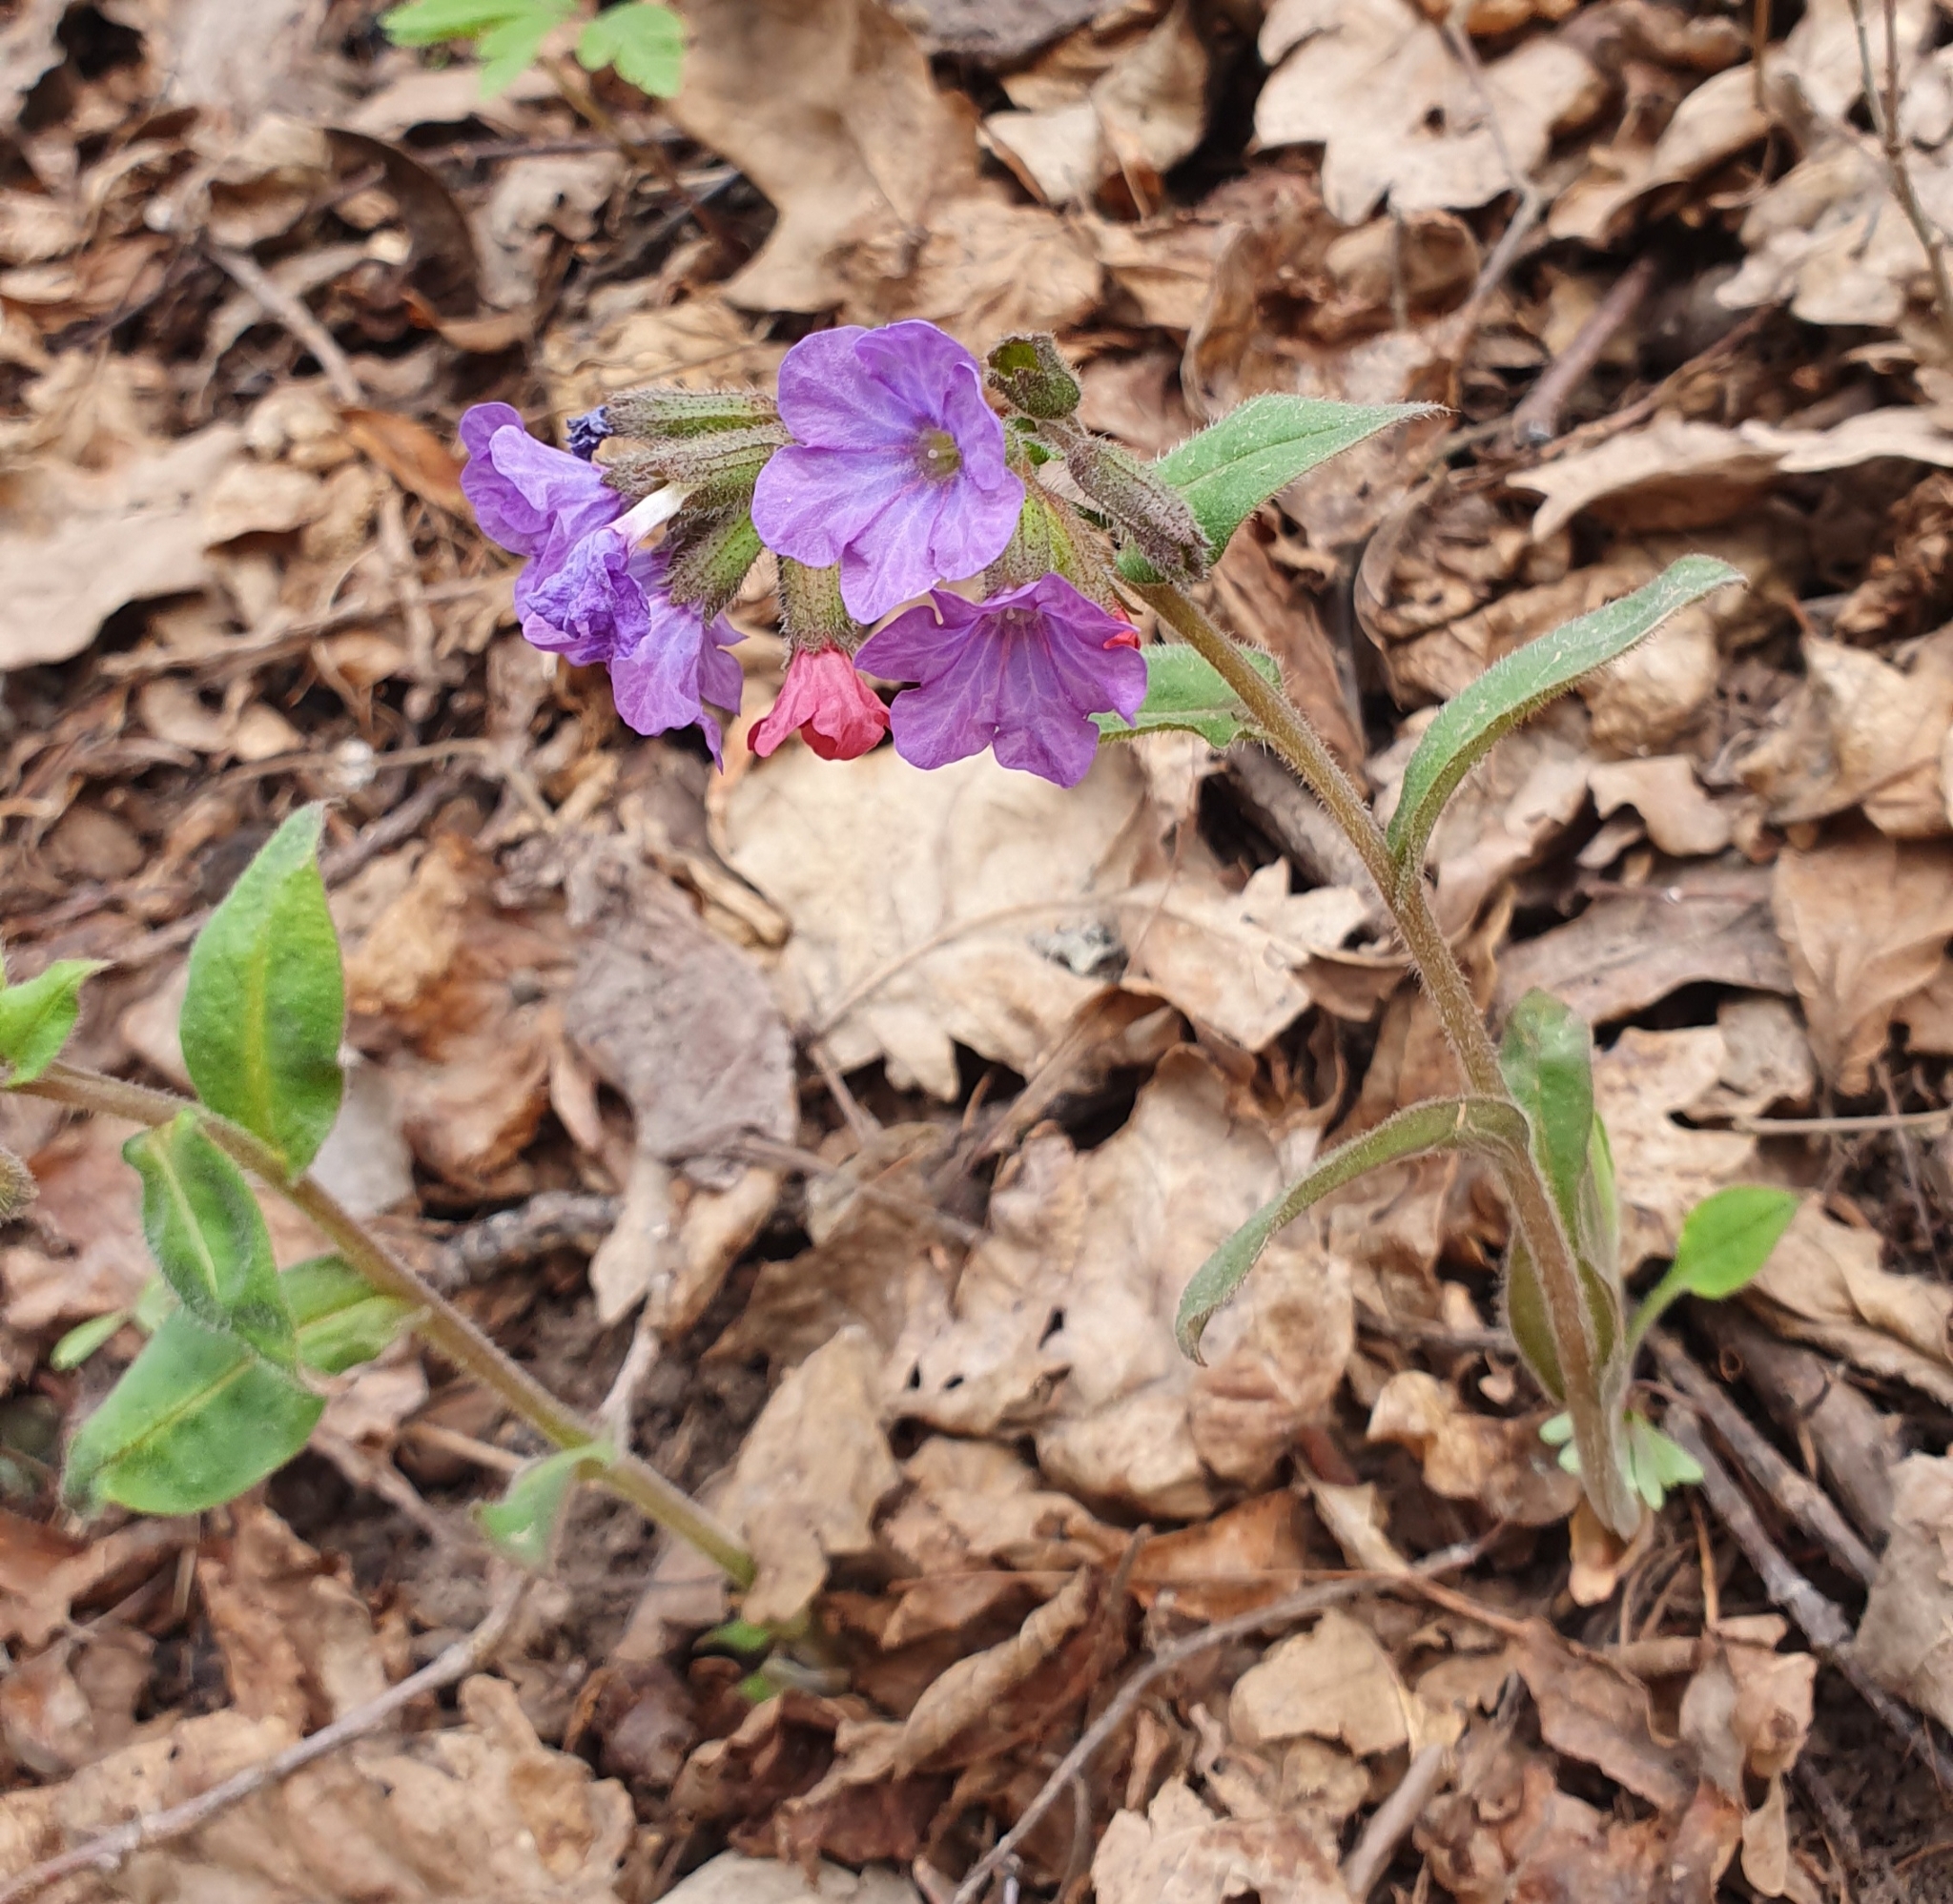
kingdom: Plantae
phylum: Tracheophyta
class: Magnoliopsida
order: Boraginales
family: Boraginaceae
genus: Pulmonaria
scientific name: Pulmonaria obscura
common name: Suffolk lungwort
